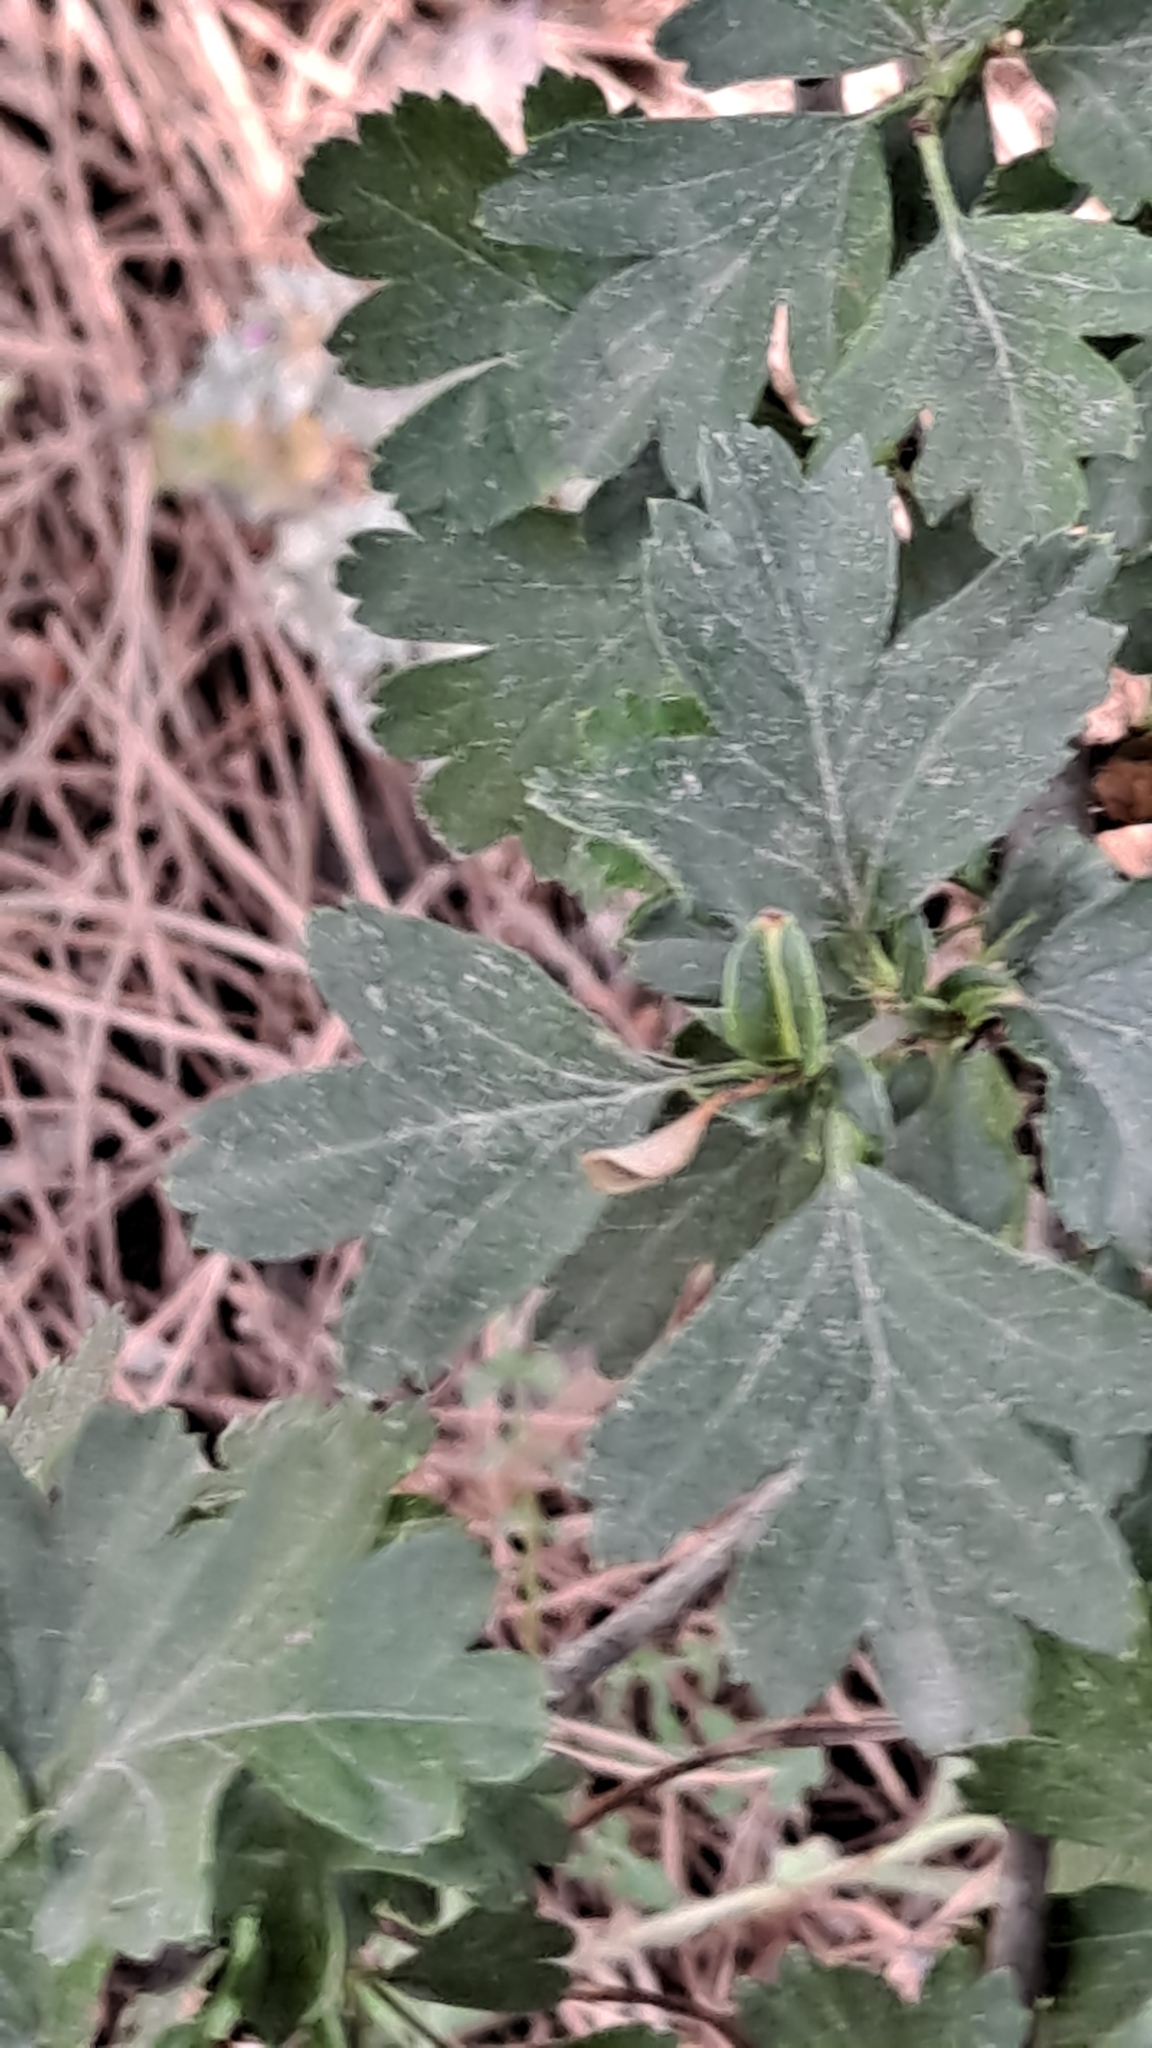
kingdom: Plantae
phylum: Tracheophyta
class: Magnoliopsida
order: Rosales
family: Rosaceae
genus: Crataegus
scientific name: Crataegus monogyna
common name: Hawthorn
